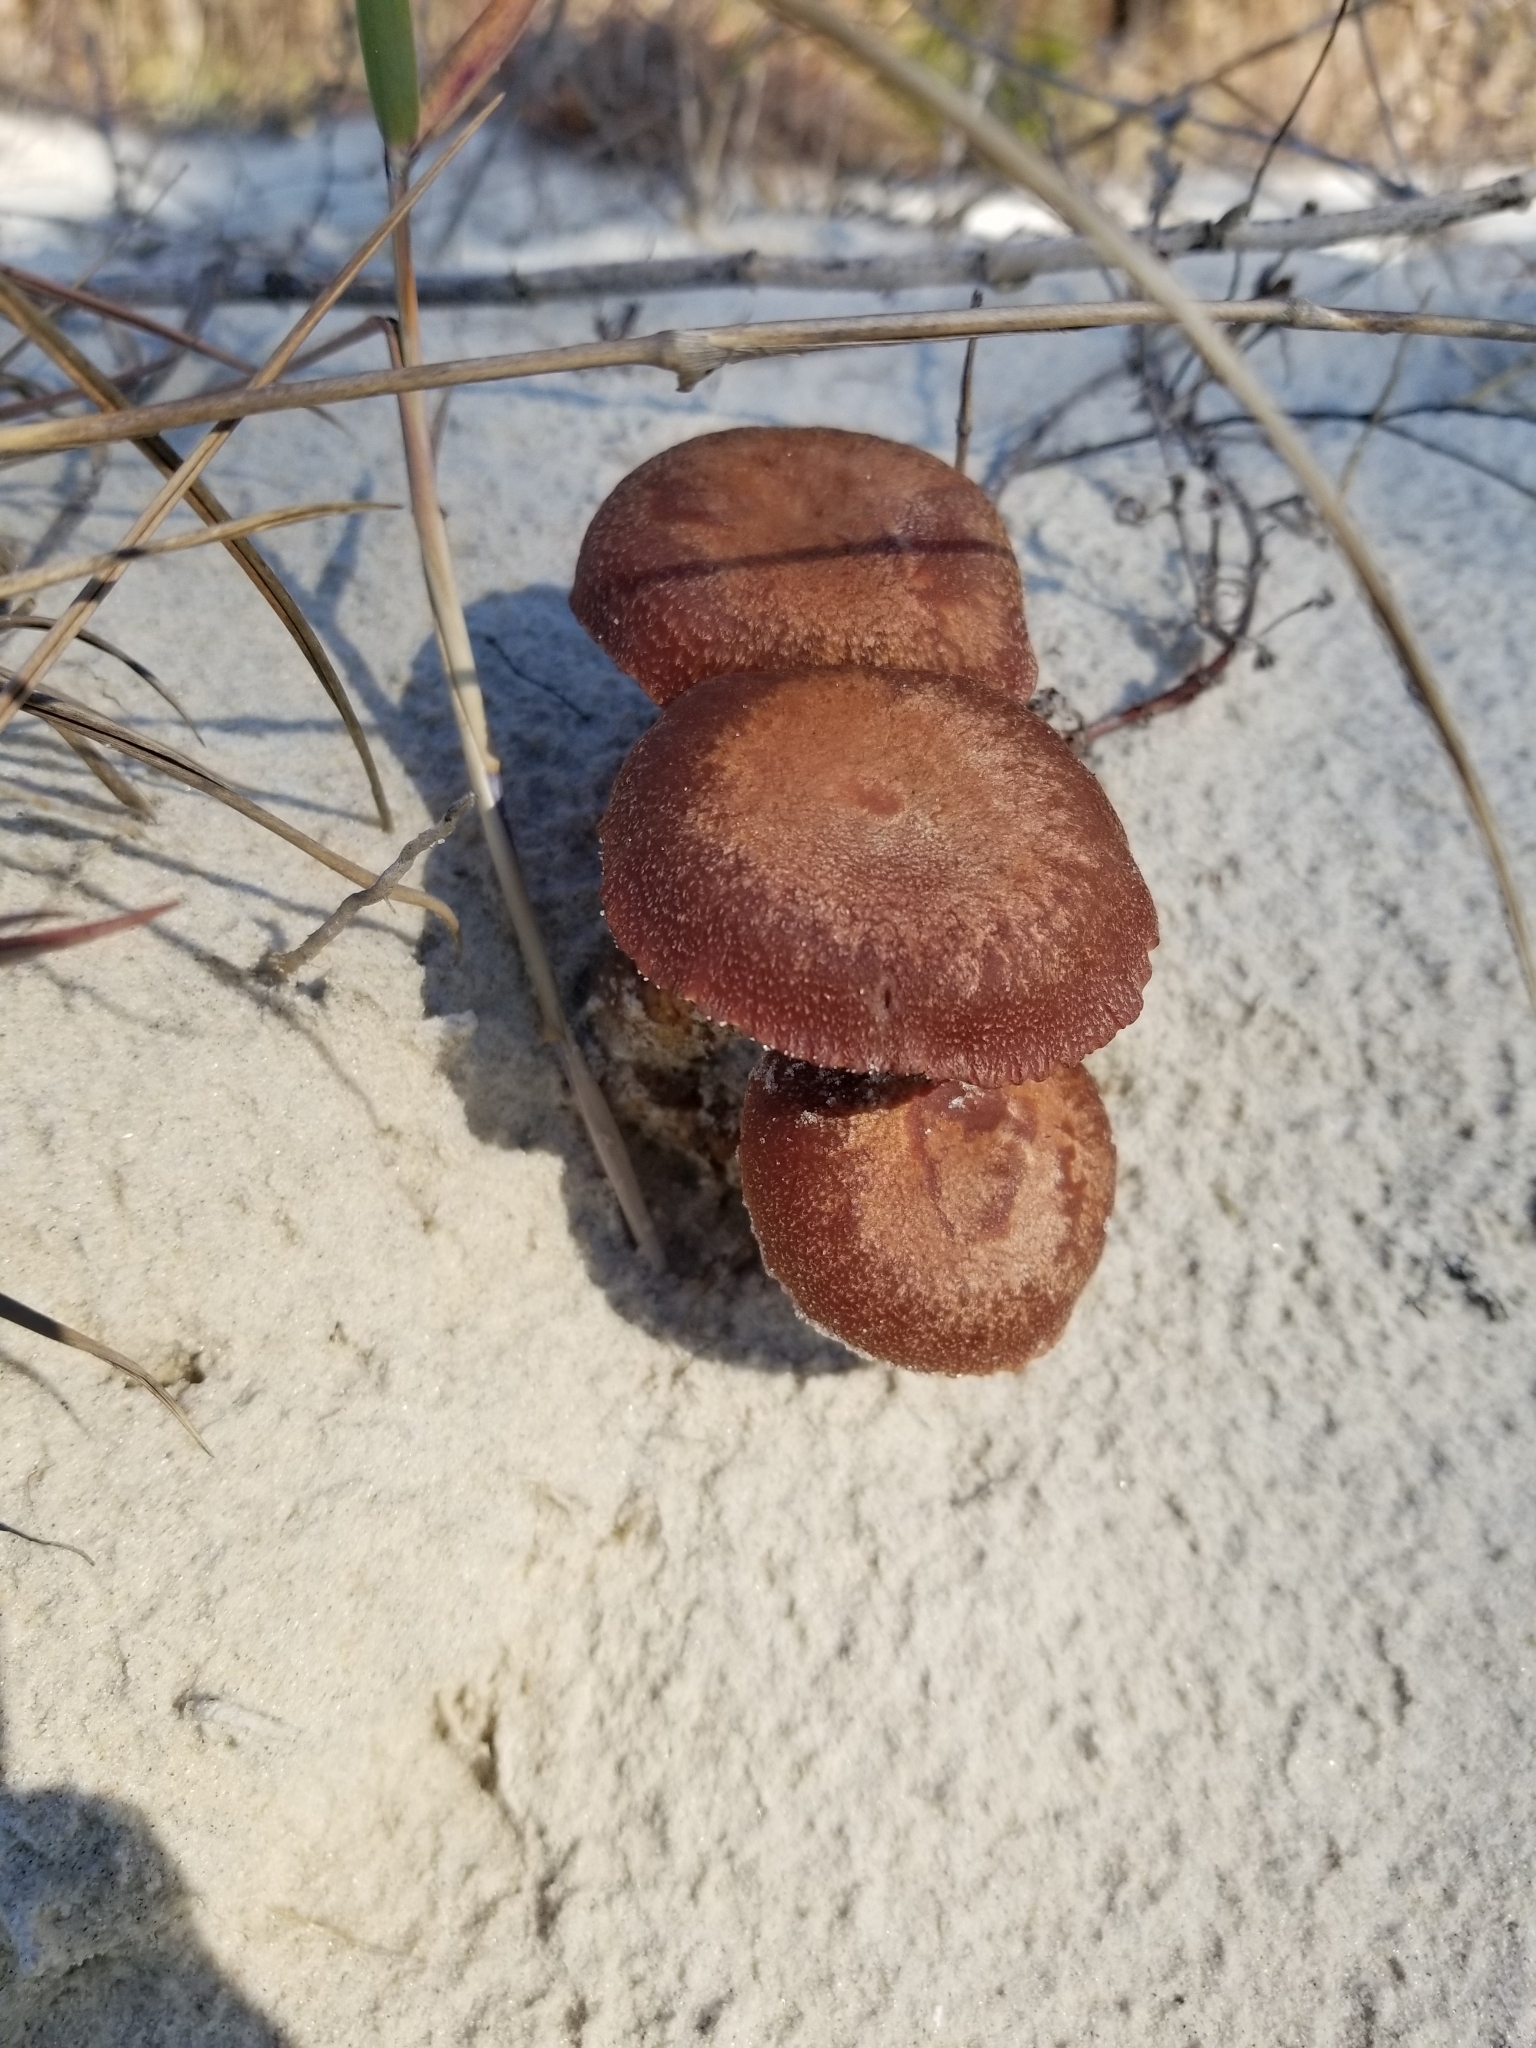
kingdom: Fungi
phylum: Basidiomycota
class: Agaricomycetes
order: Agaricales
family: Hydnangiaceae
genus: Laccaria
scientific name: Laccaria trullissata
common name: Sandy laccaria
